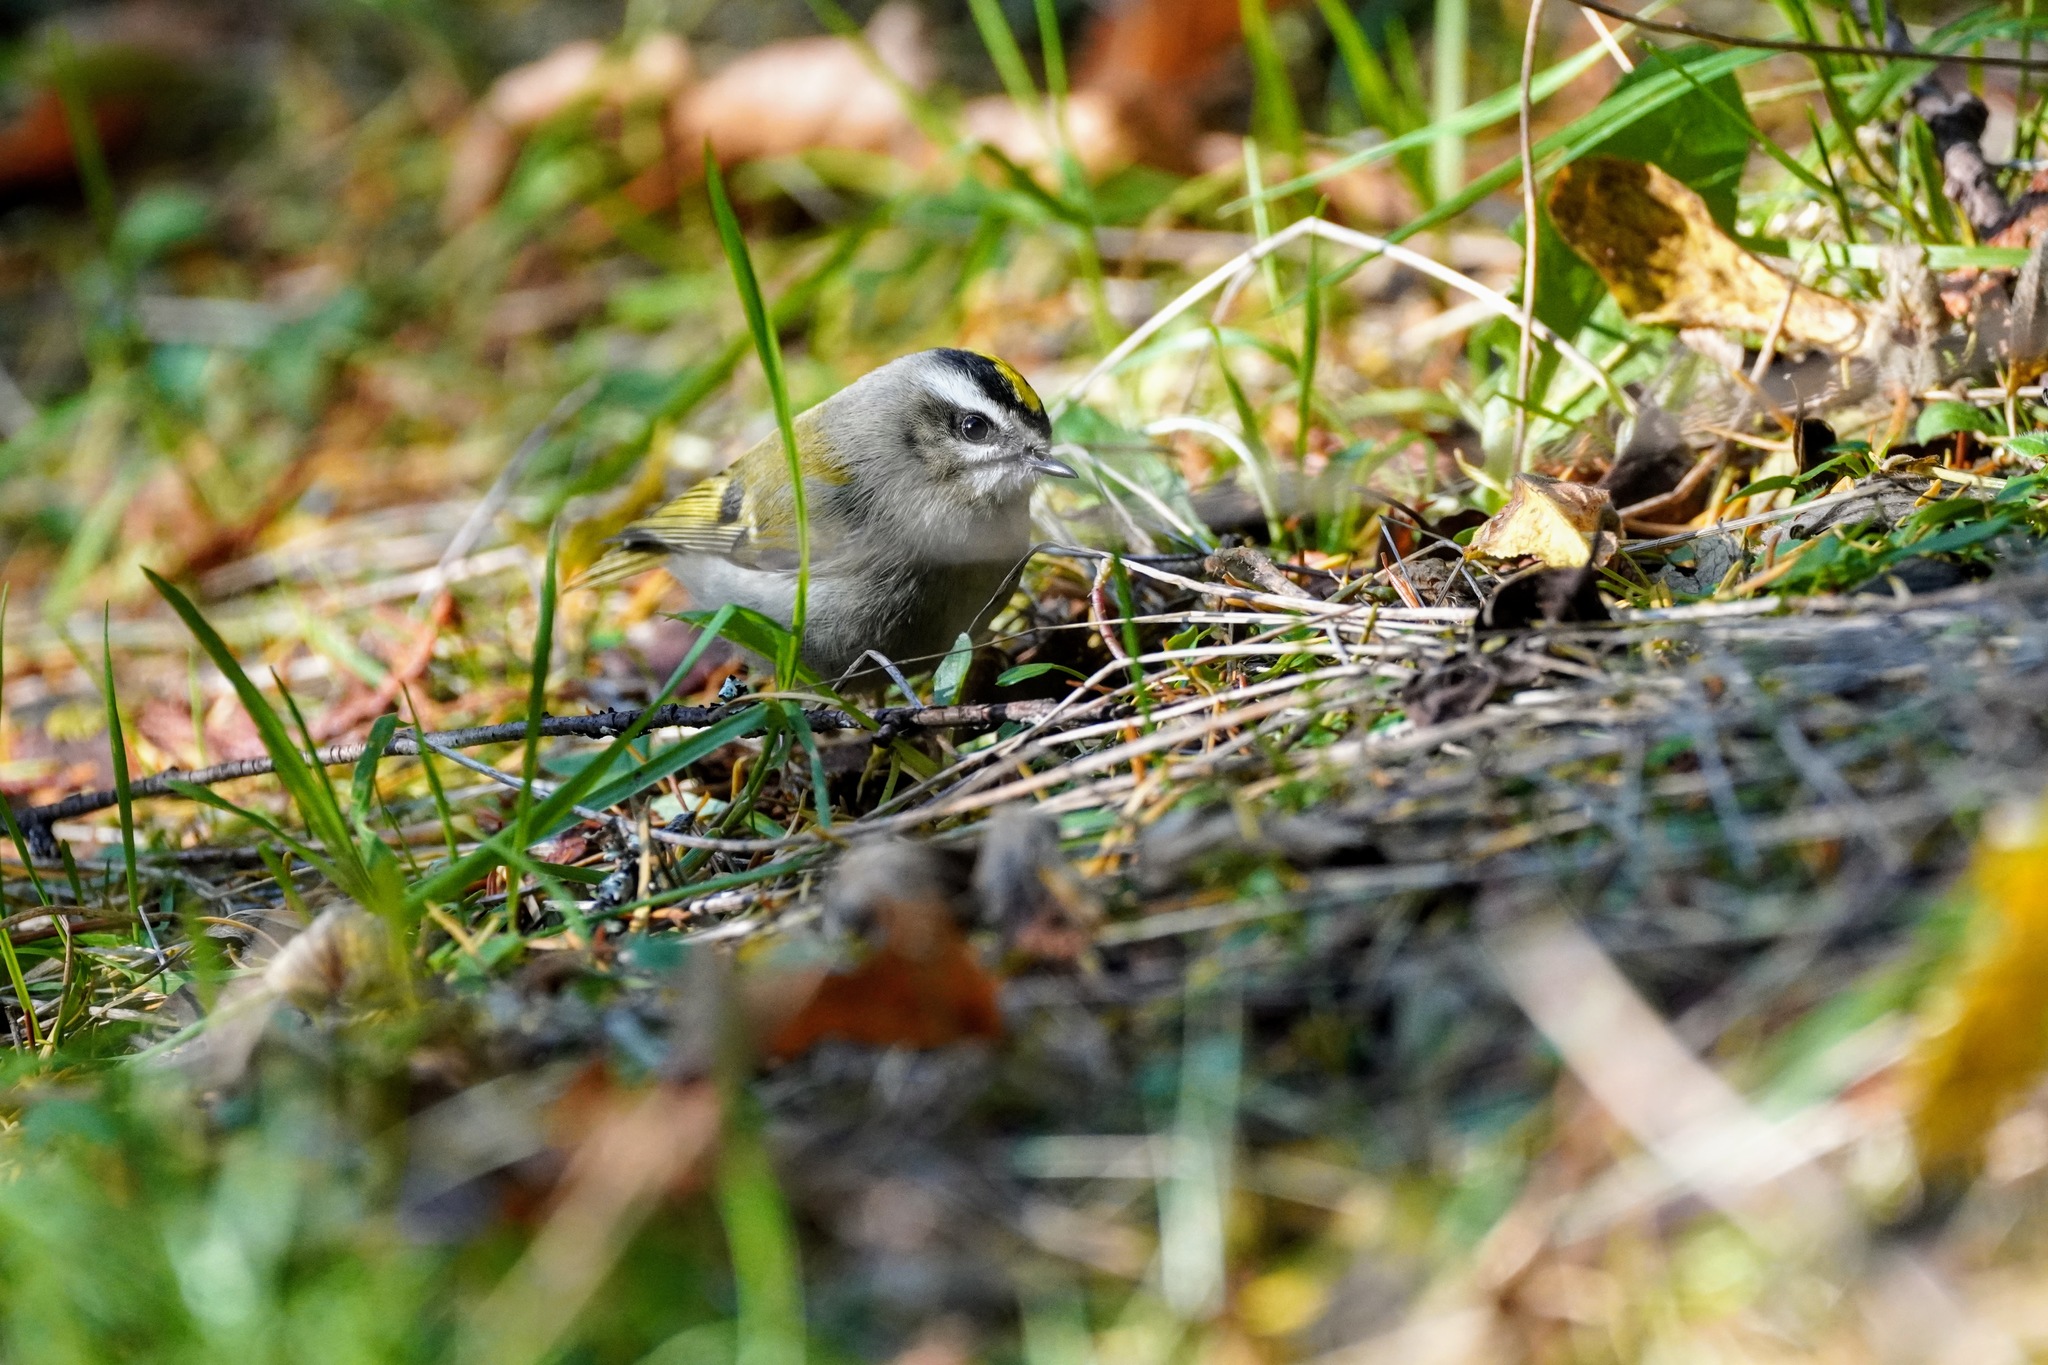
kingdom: Animalia
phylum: Chordata
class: Aves
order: Passeriformes
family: Regulidae
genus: Regulus
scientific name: Regulus satrapa
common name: Golden-crowned kinglet
